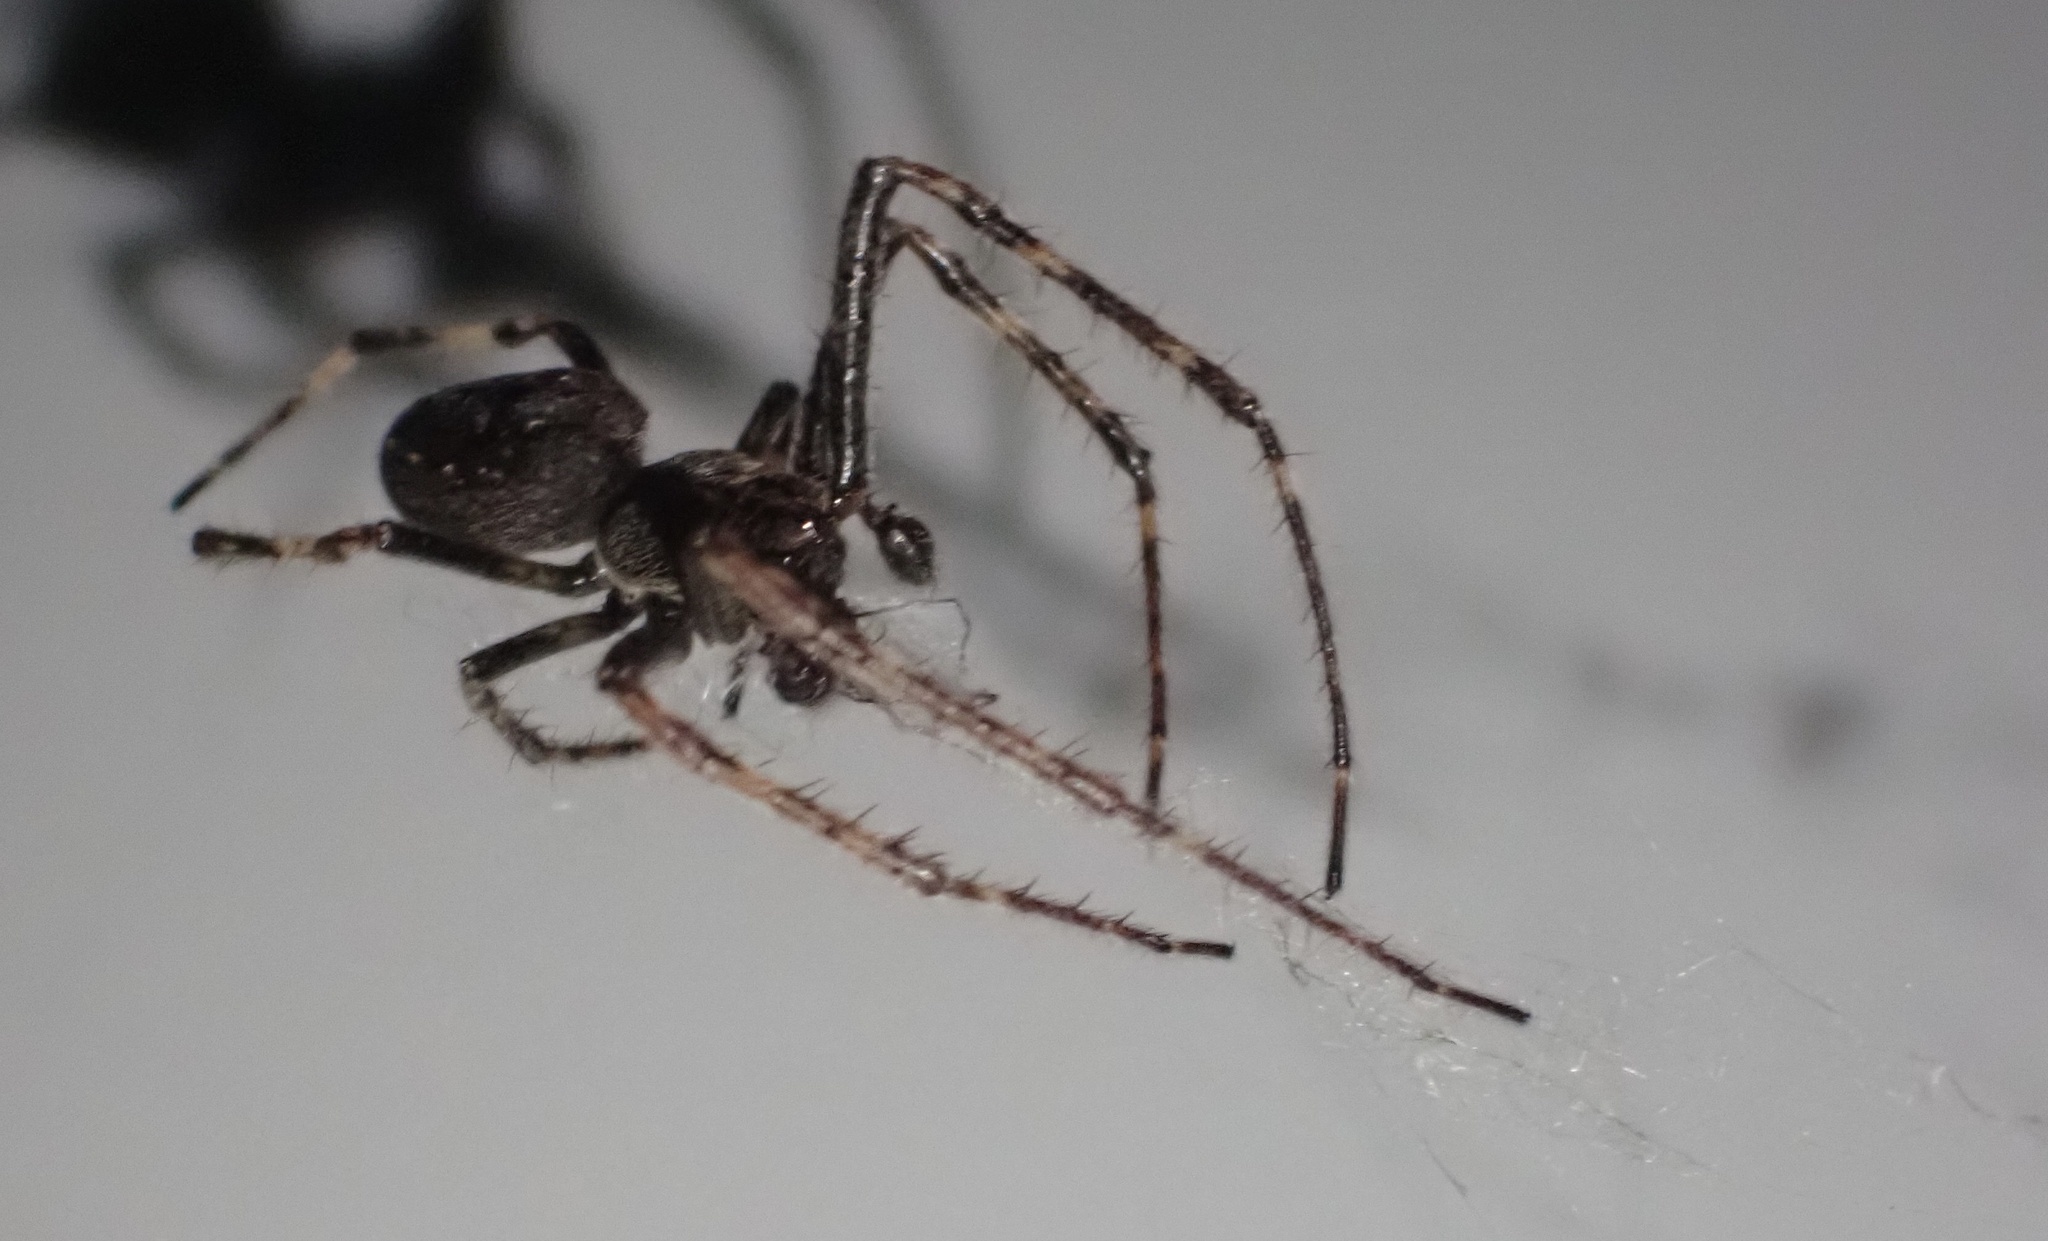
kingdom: Animalia
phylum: Arthropoda
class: Arachnida
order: Araneae
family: Araneidae
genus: Nuctenea
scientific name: Nuctenea umbratica
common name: Toad spider
